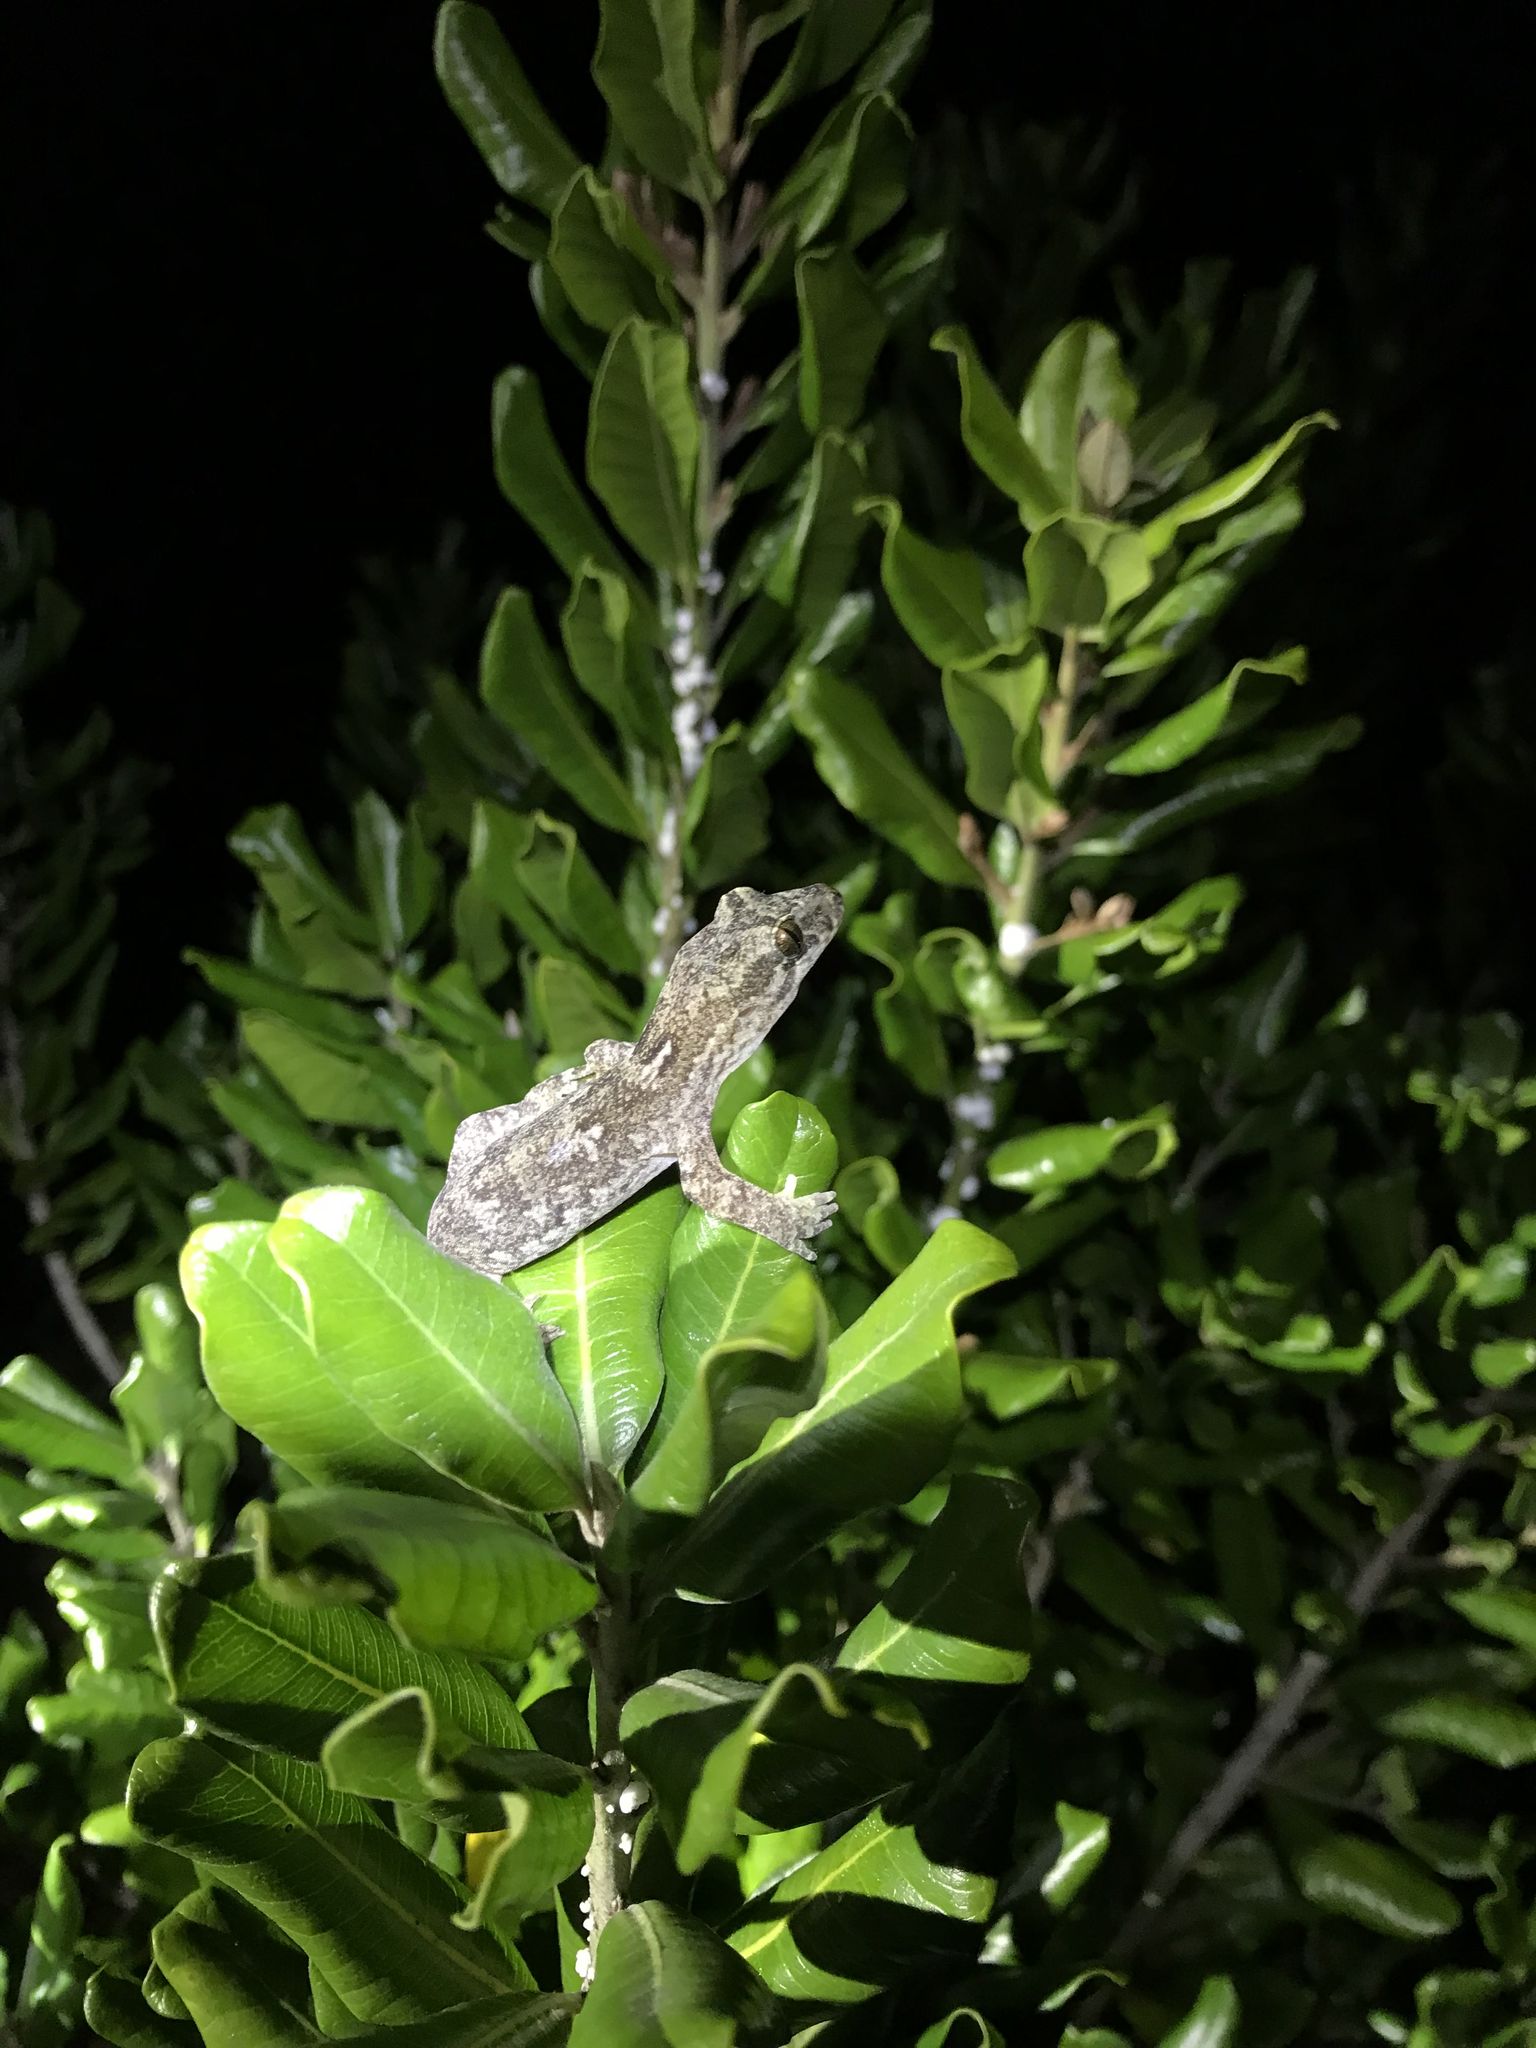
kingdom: Animalia
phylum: Chordata
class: Squamata
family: Diplodactylidae
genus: Dactylocnemis
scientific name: Dactylocnemis pacificus
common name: Pacific gecko
